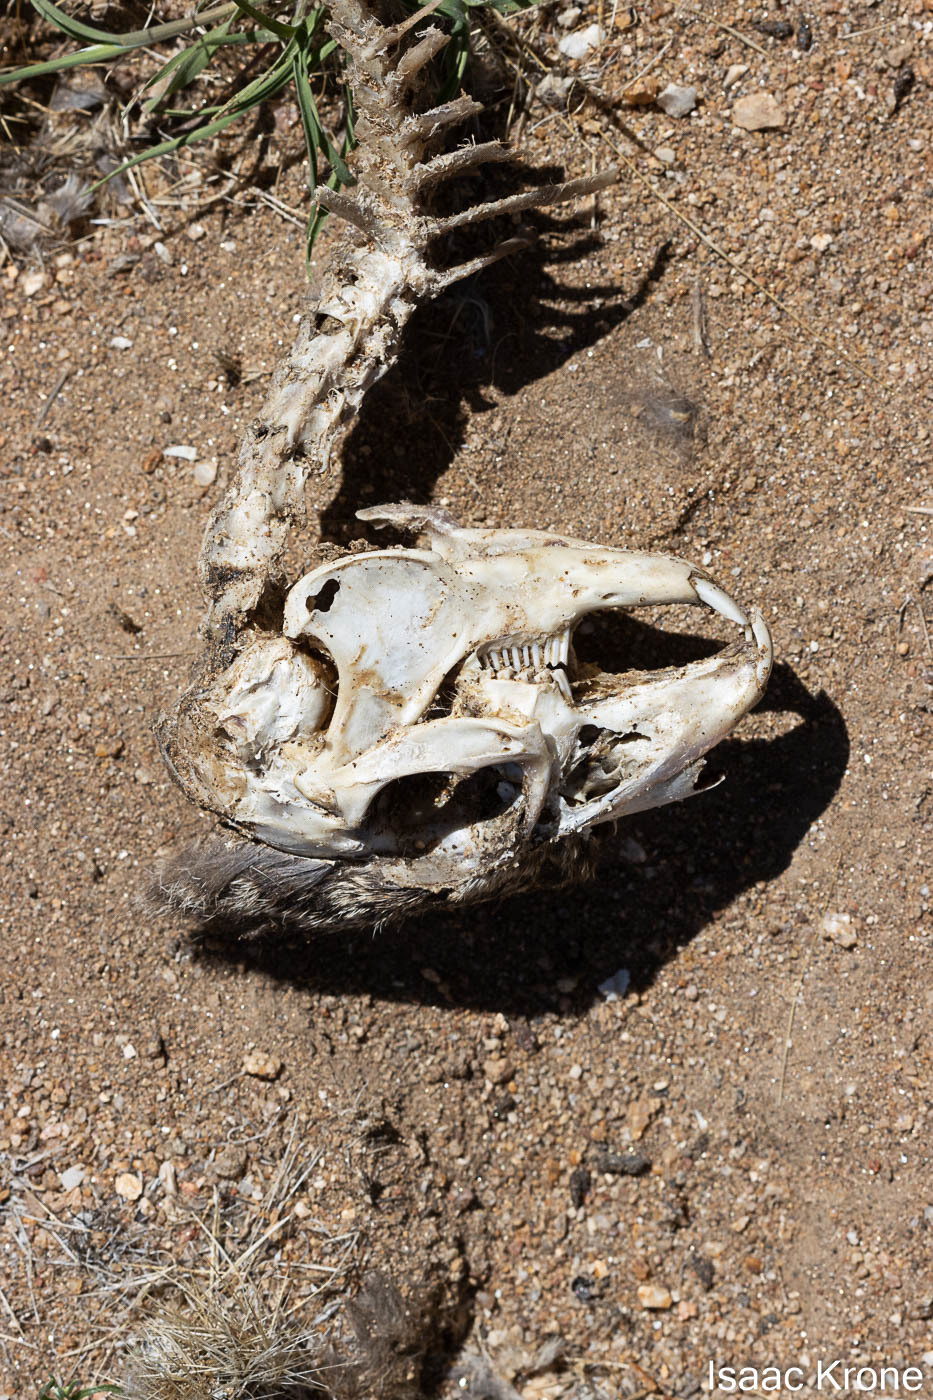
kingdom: Animalia
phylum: Chordata
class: Mammalia
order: Lagomorpha
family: Leporidae
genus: Lepus
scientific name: Lepus californicus
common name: Black-tailed jackrabbit
